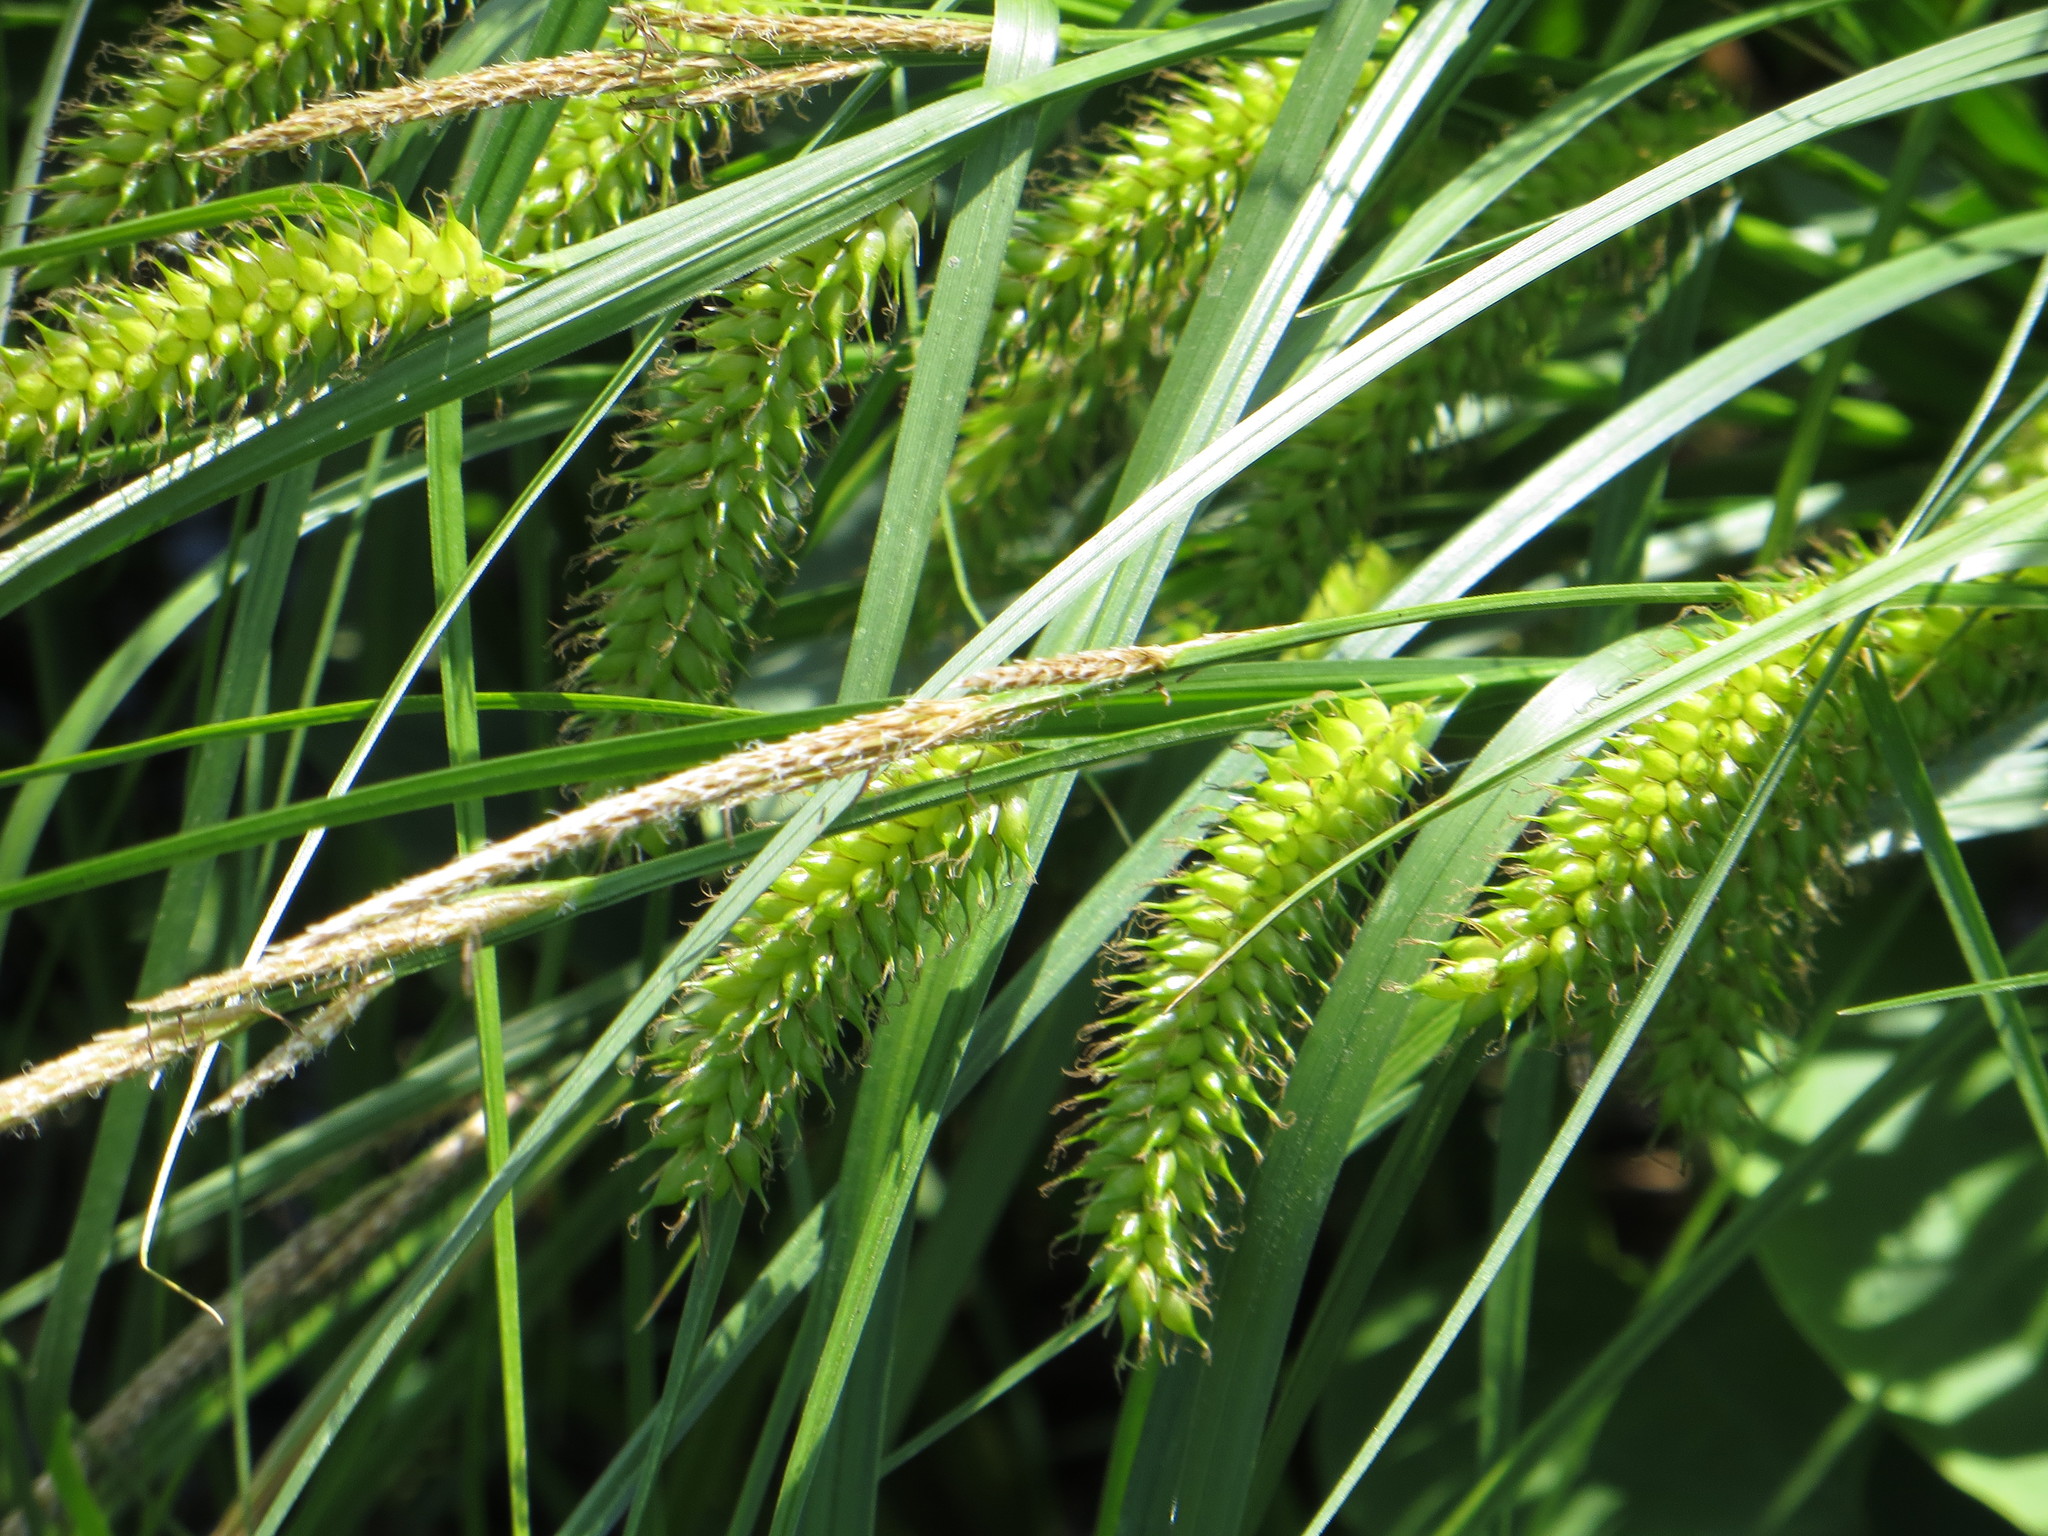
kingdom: Plantae
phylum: Tracheophyta
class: Liliopsida
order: Poales
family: Cyperaceae
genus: Carex
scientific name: Carex vesicaria
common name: Bladder-sedge
